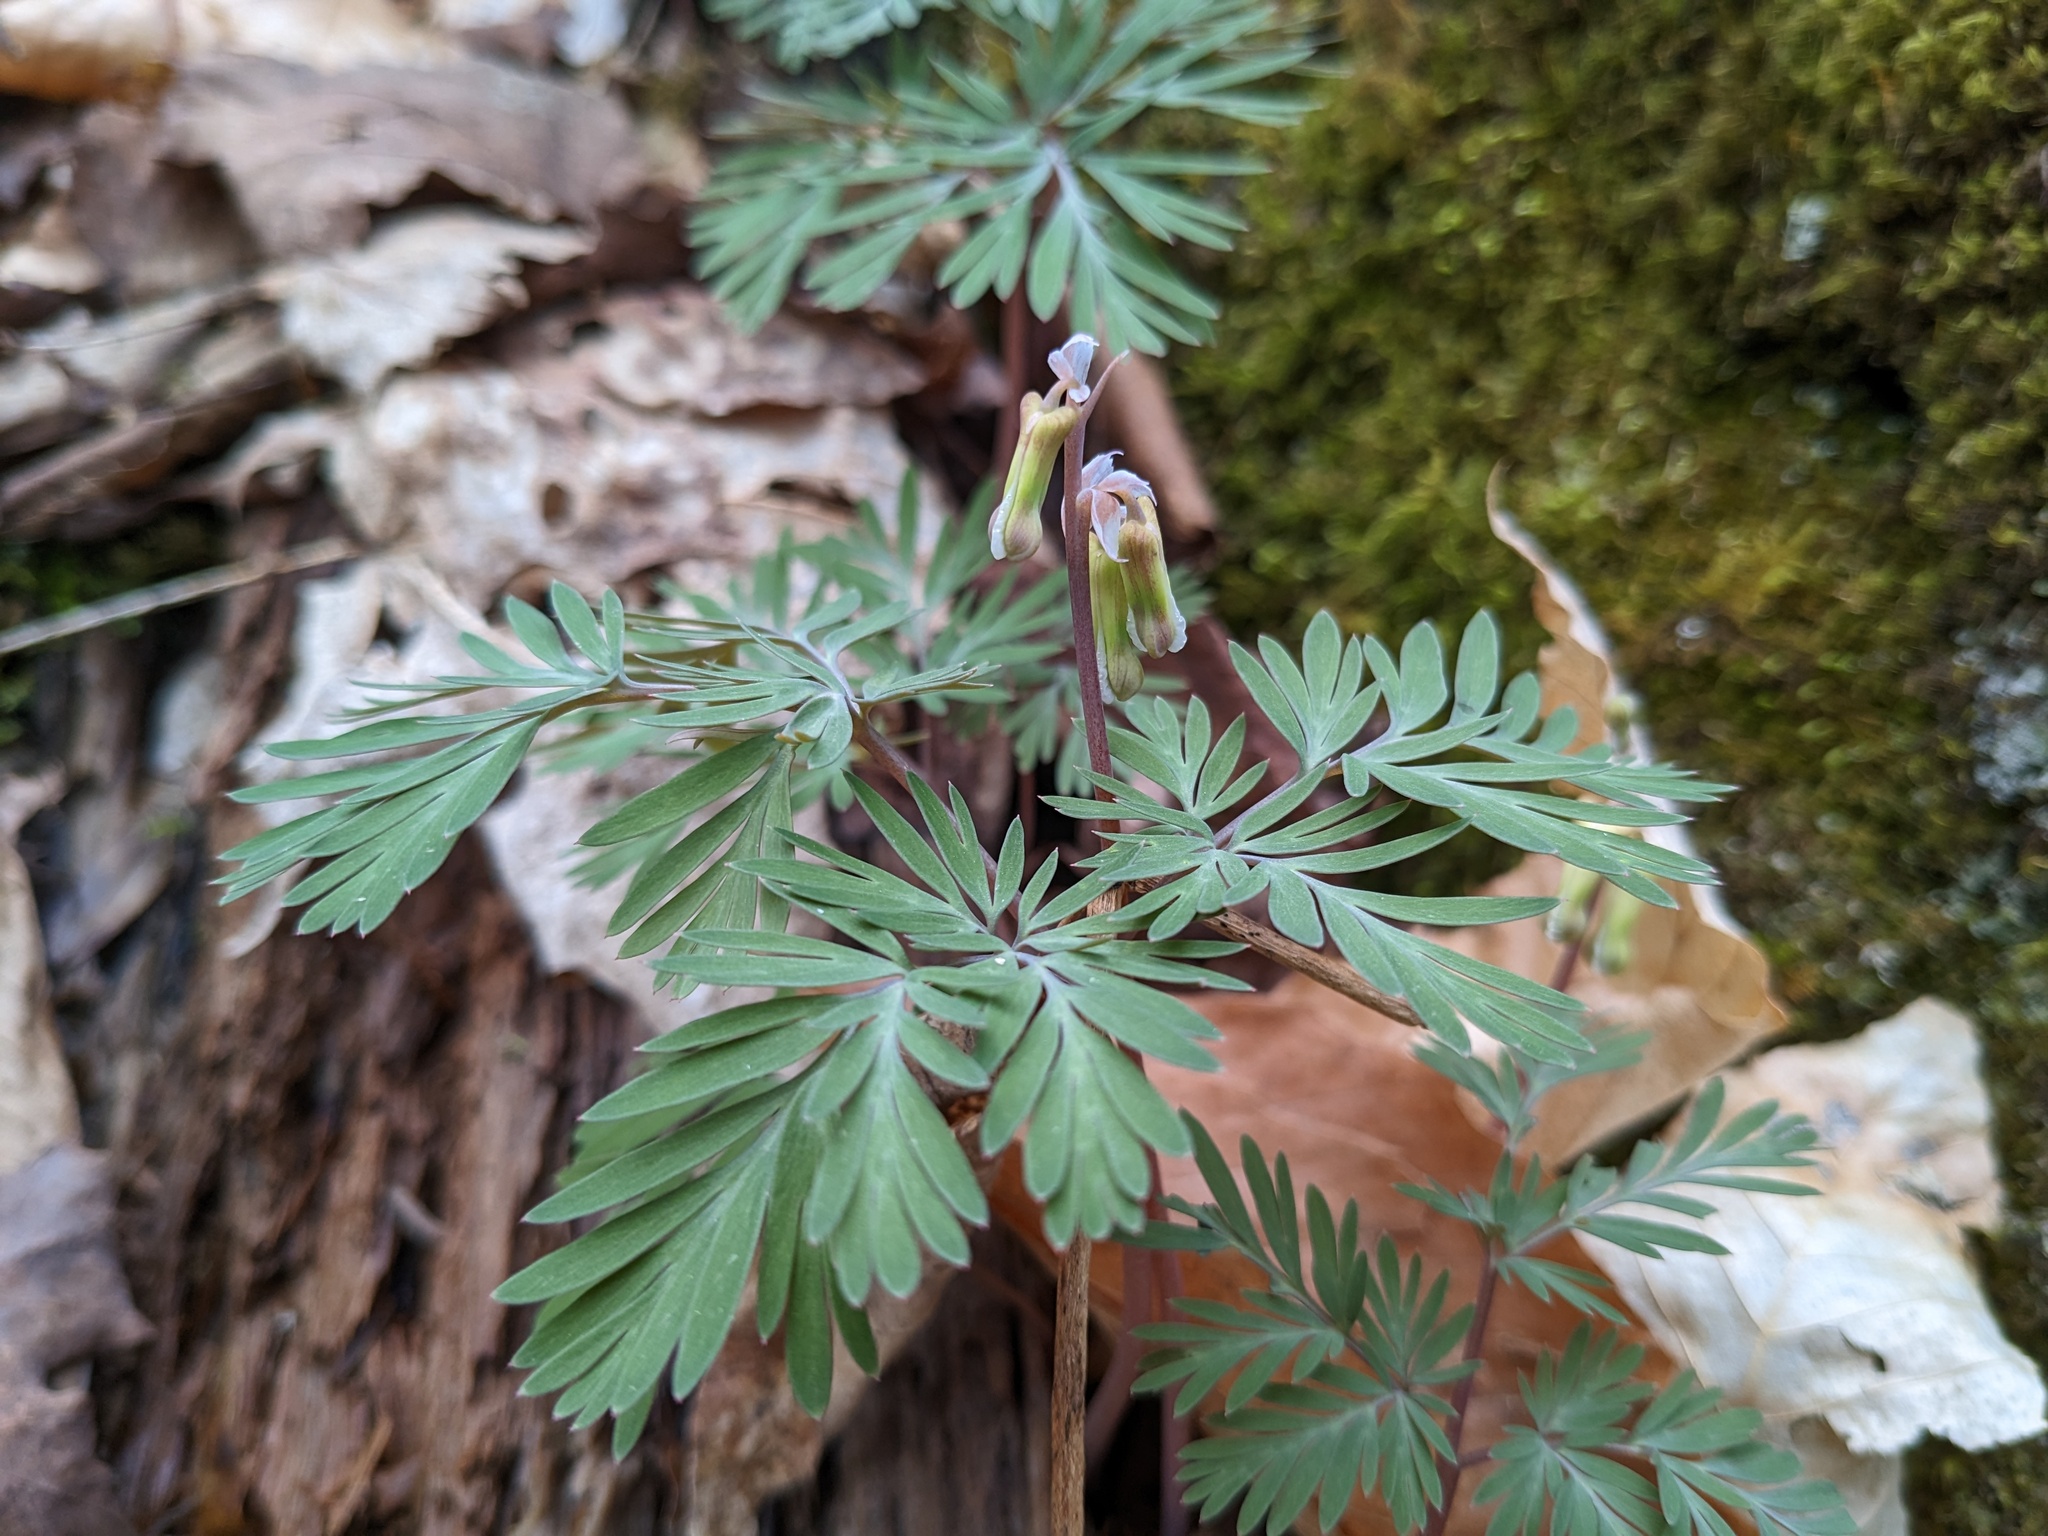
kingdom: Plantae
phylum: Tracheophyta
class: Magnoliopsida
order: Ranunculales
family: Papaveraceae
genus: Dicentra
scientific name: Dicentra canadensis
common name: Squirrel-corn
